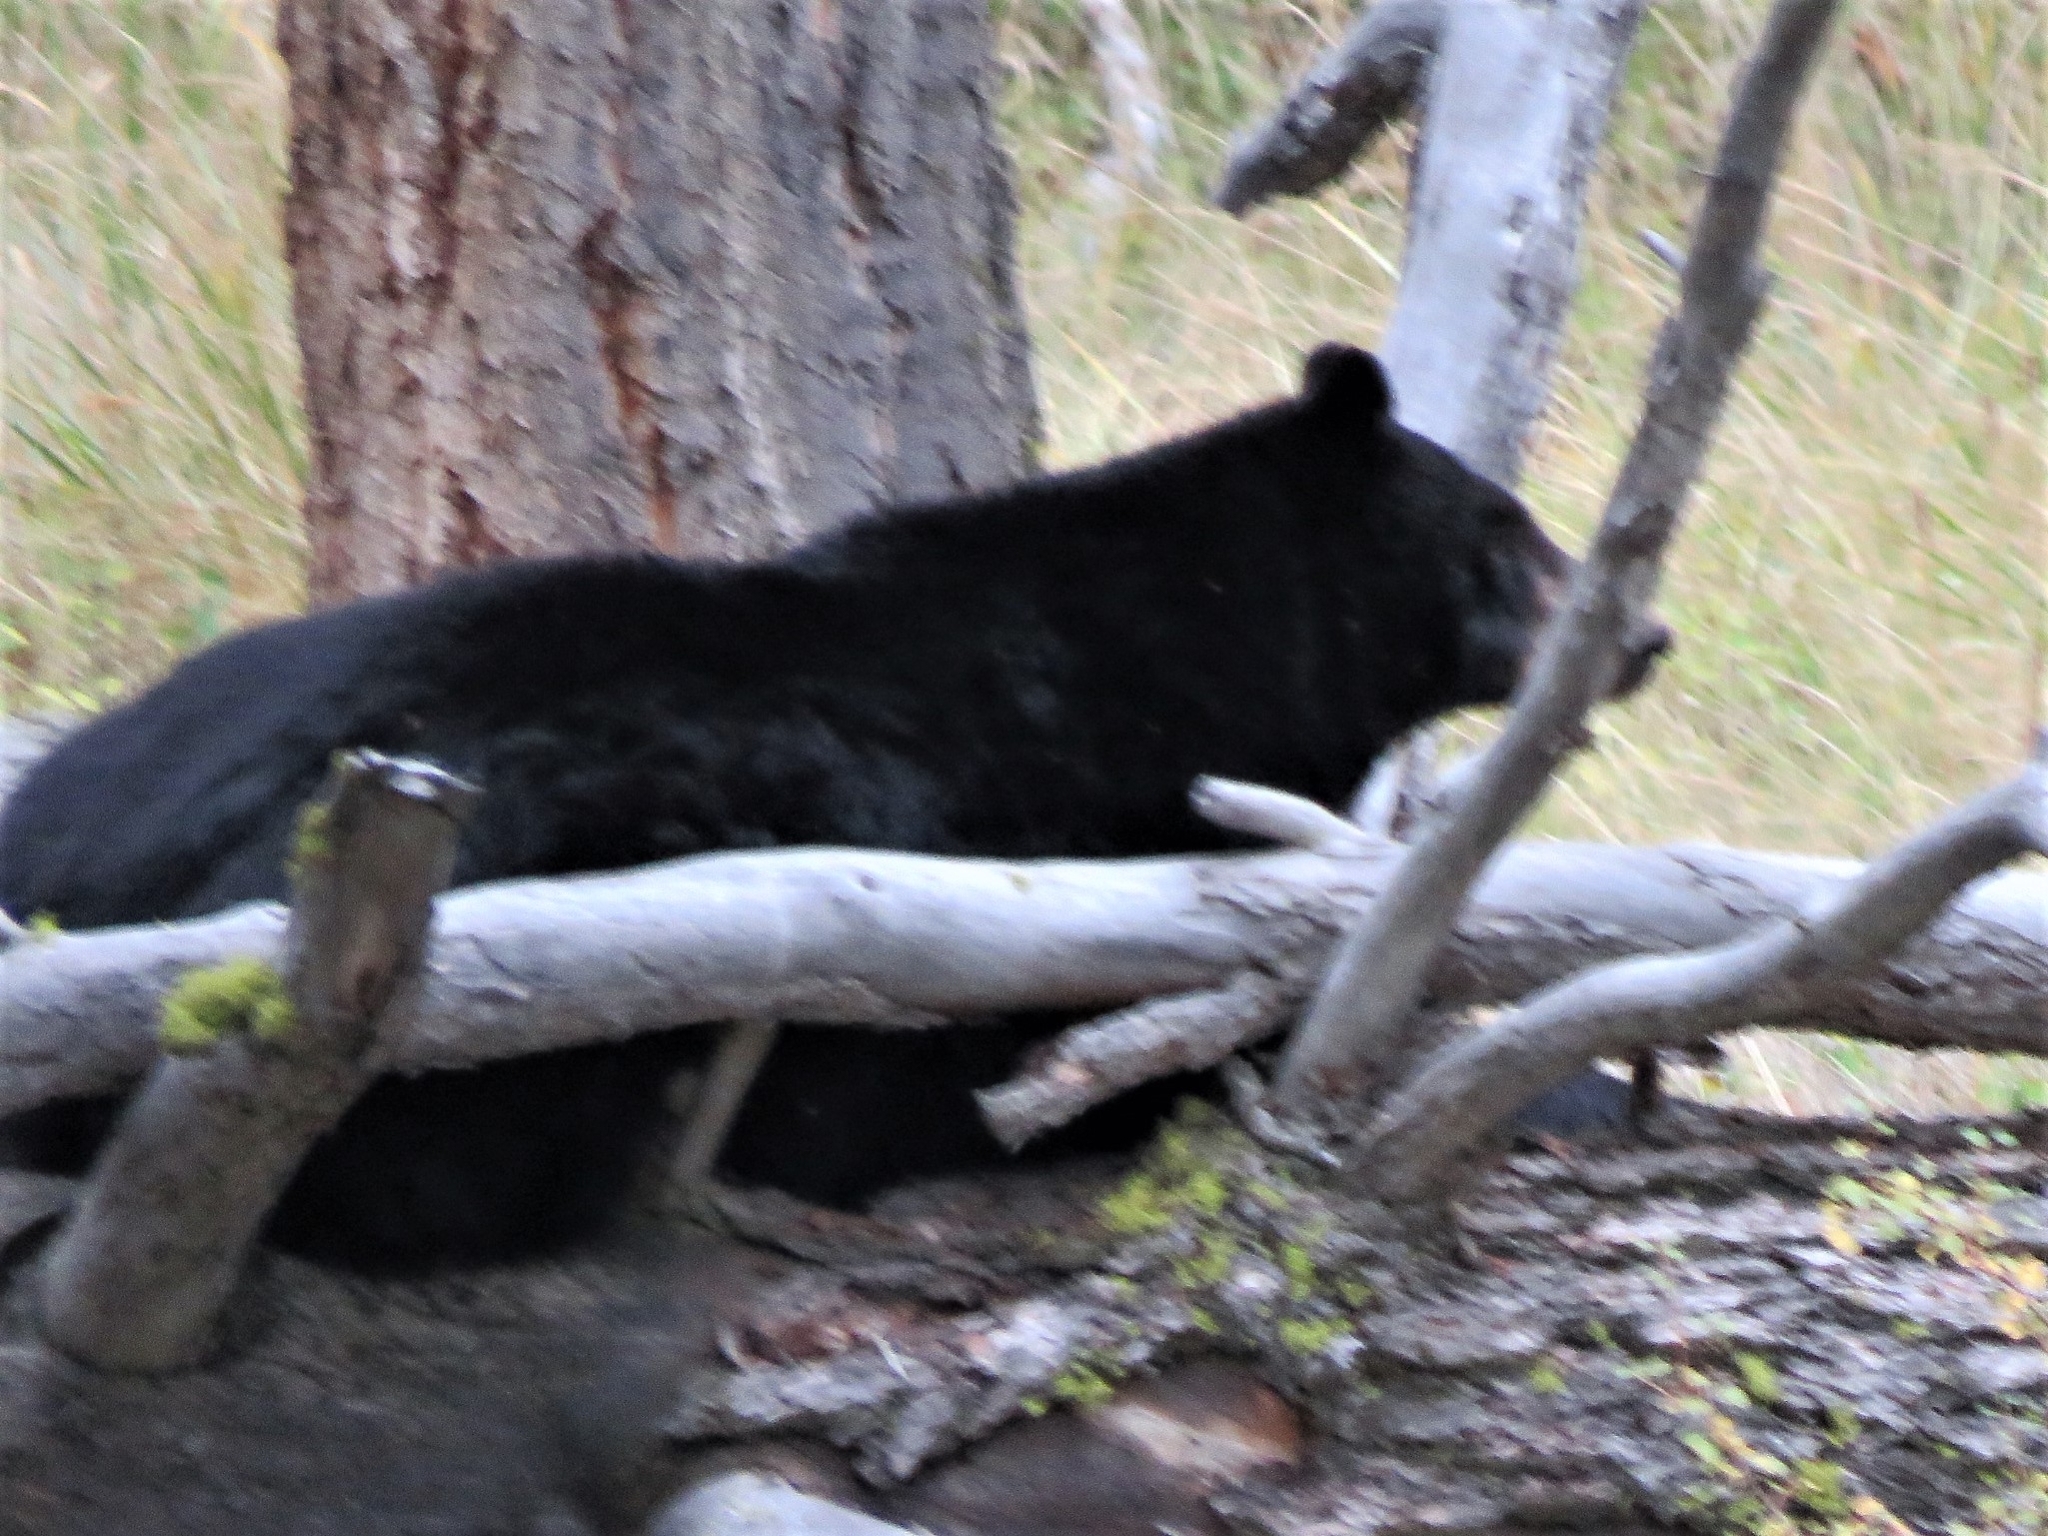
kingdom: Animalia
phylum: Chordata
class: Mammalia
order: Carnivora
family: Ursidae
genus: Ursus
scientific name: Ursus americanus
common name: American black bear
